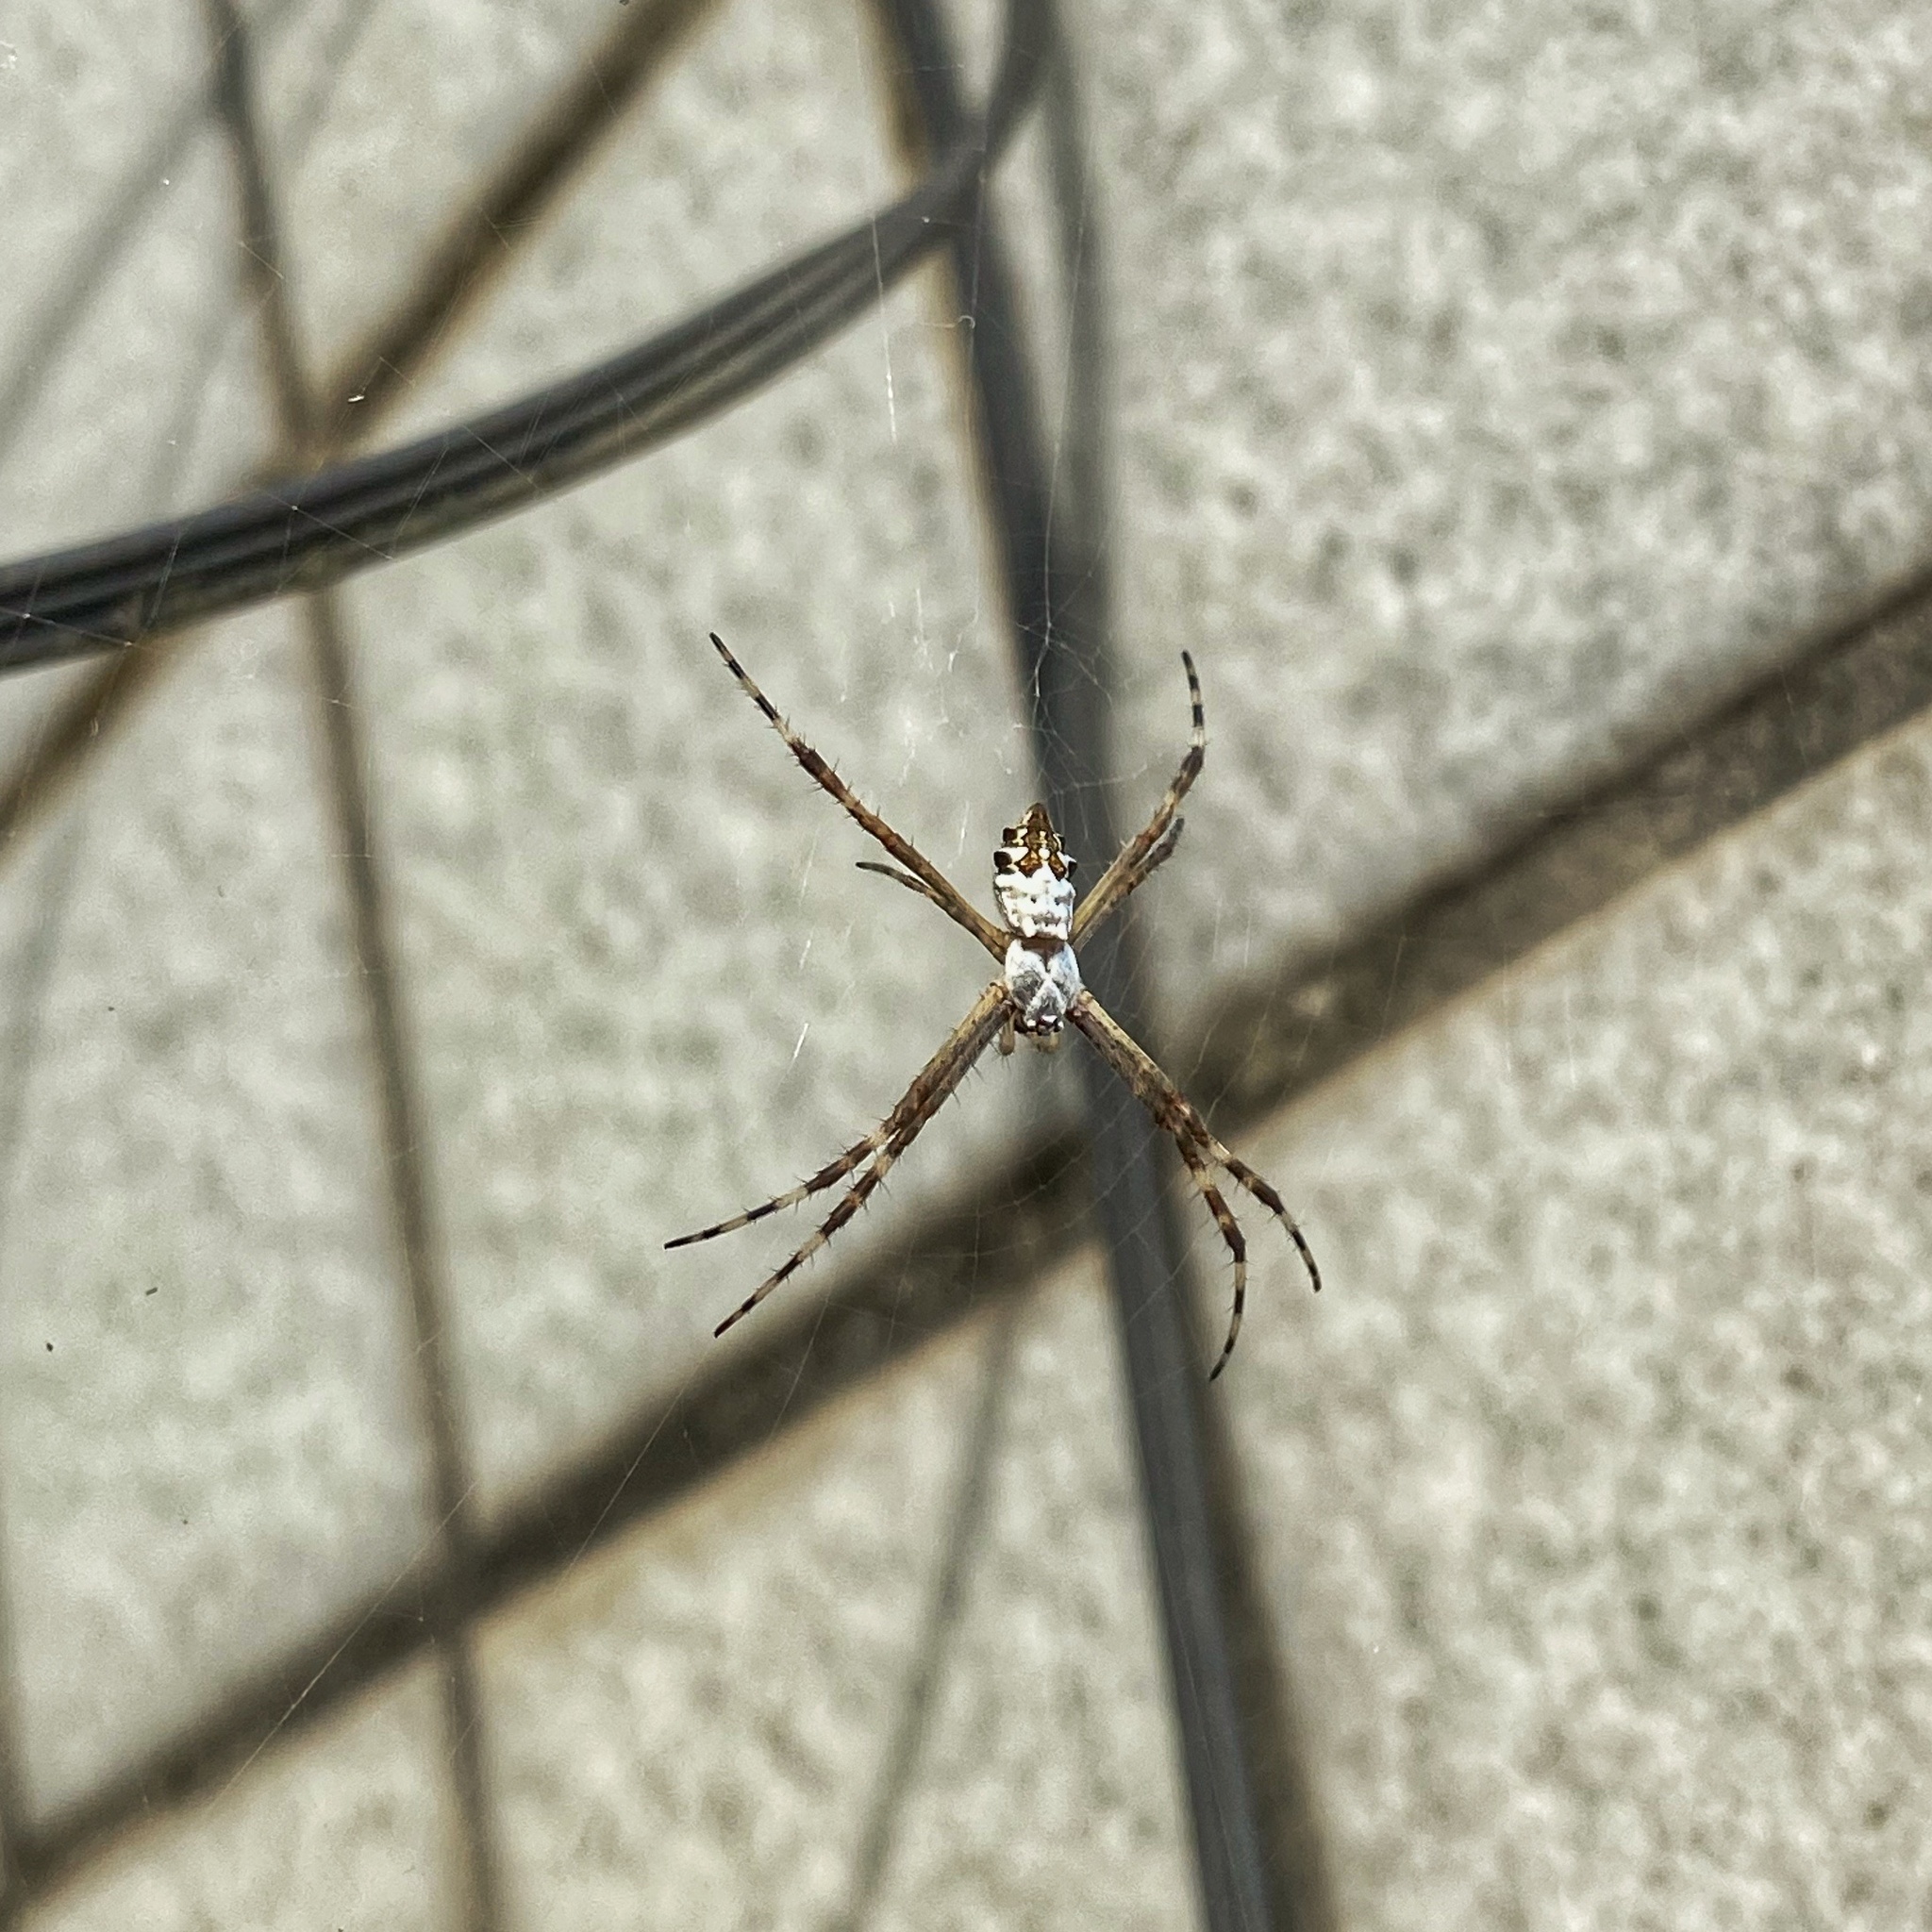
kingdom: Animalia
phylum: Arthropoda
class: Arachnida
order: Araneae
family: Araneidae
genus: Argiope
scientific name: Argiope argentata
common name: Orb weavers
